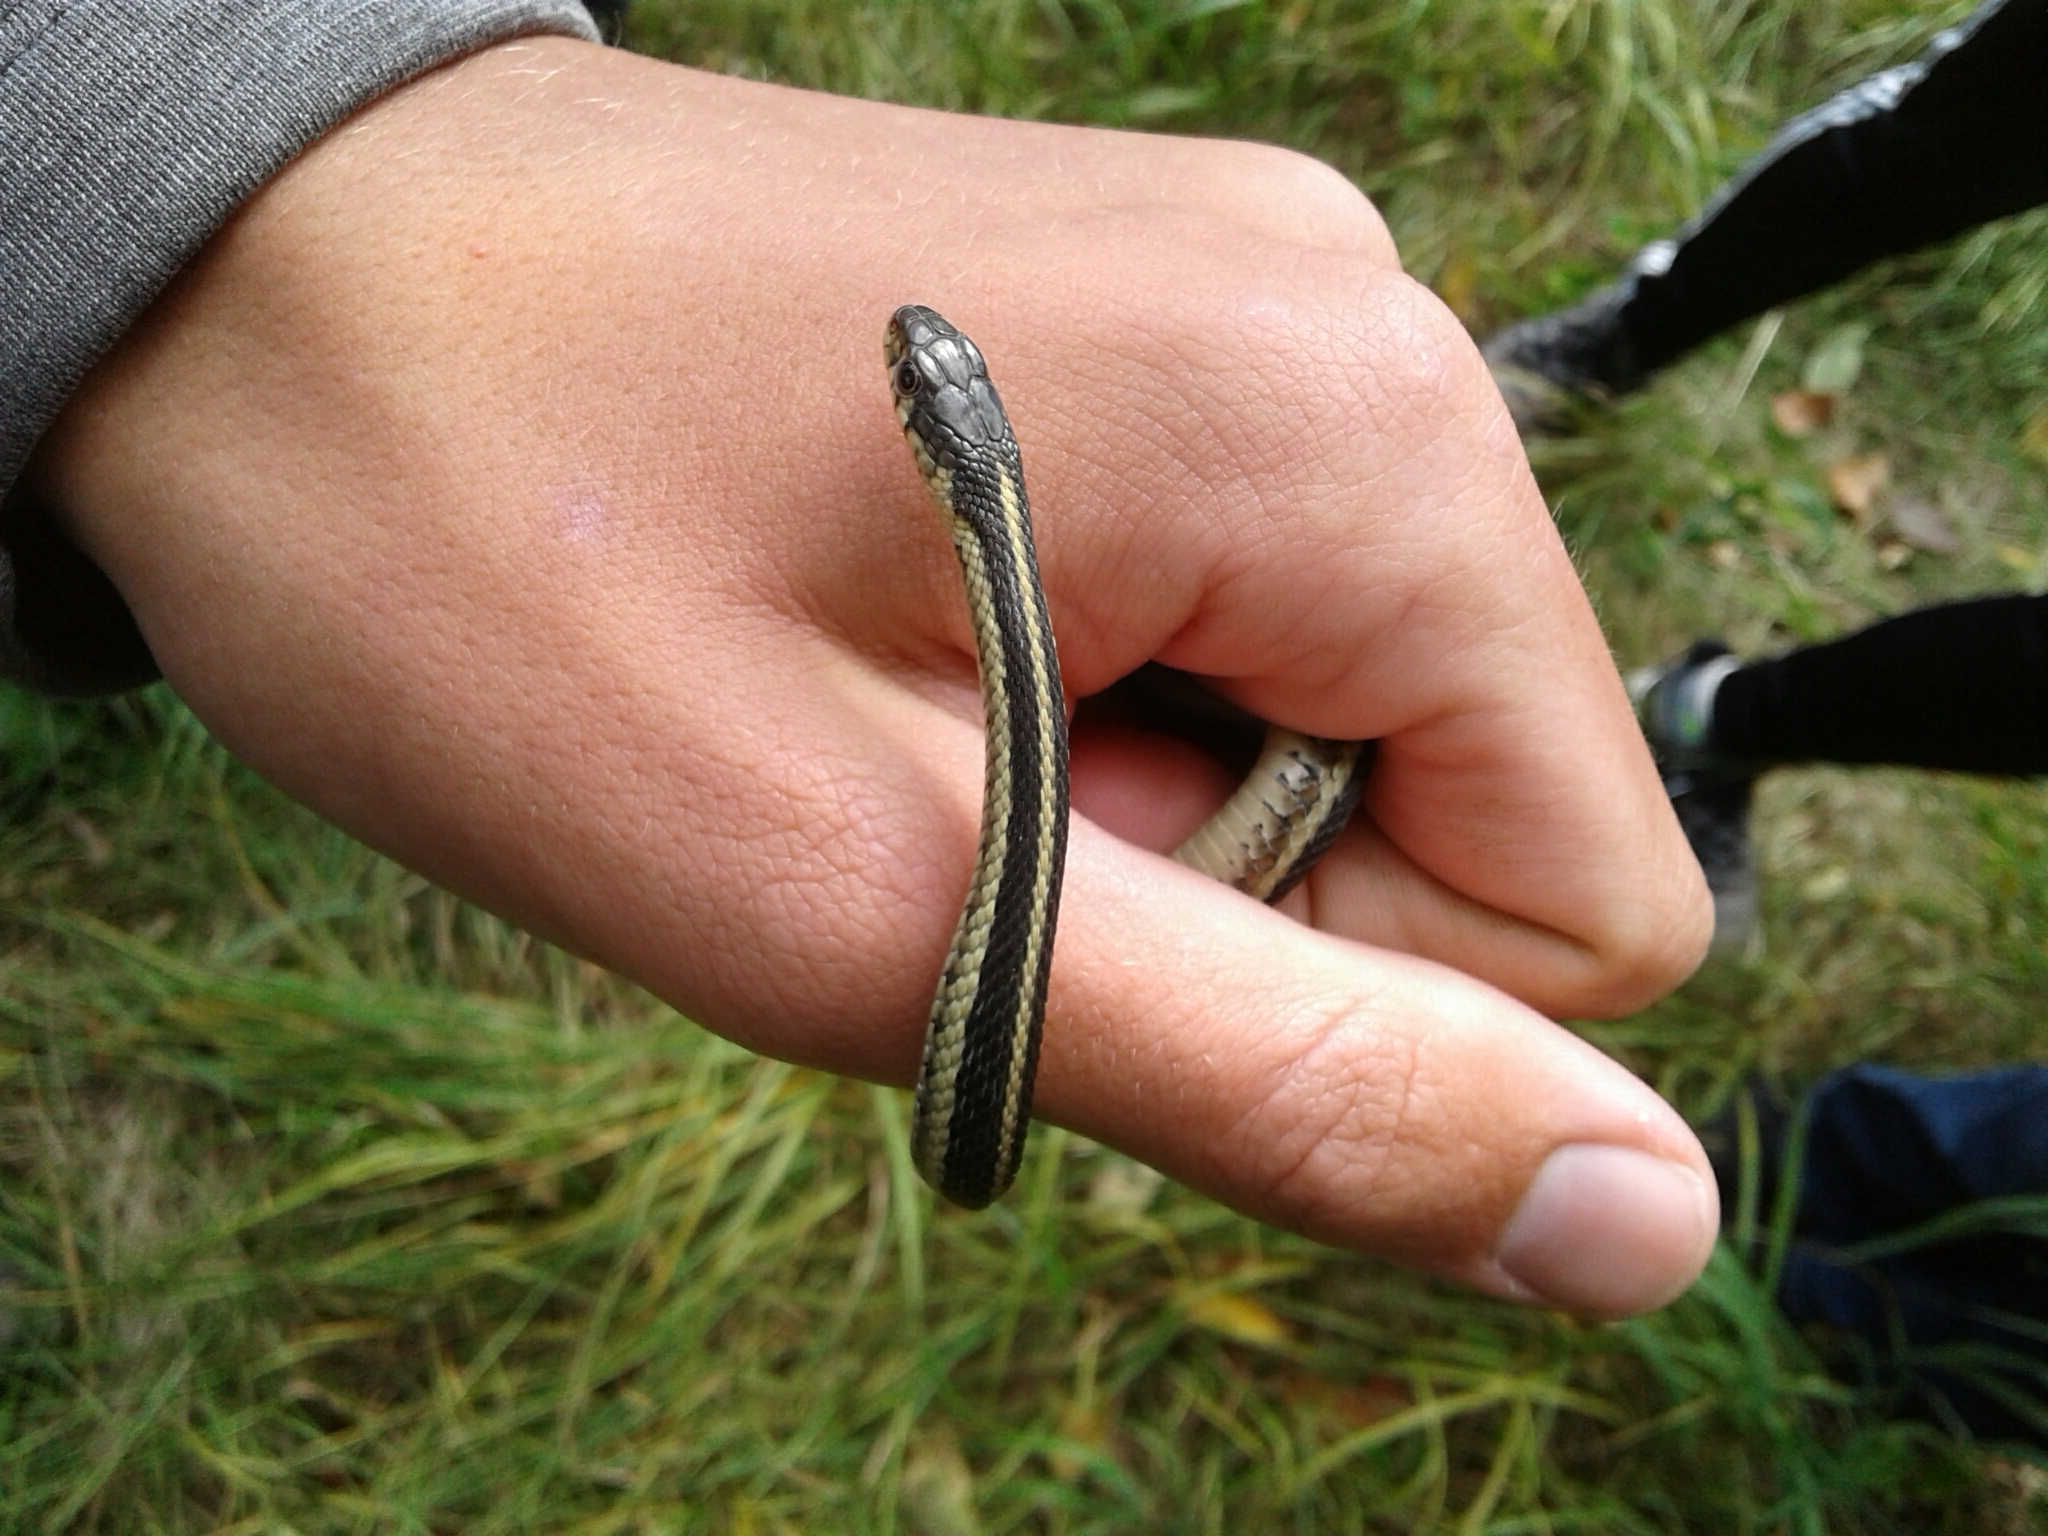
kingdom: Animalia
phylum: Chordata
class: Squamata
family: Colubridae
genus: Thamnophis
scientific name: Thamnophis sirtalis
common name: Common garter snake
